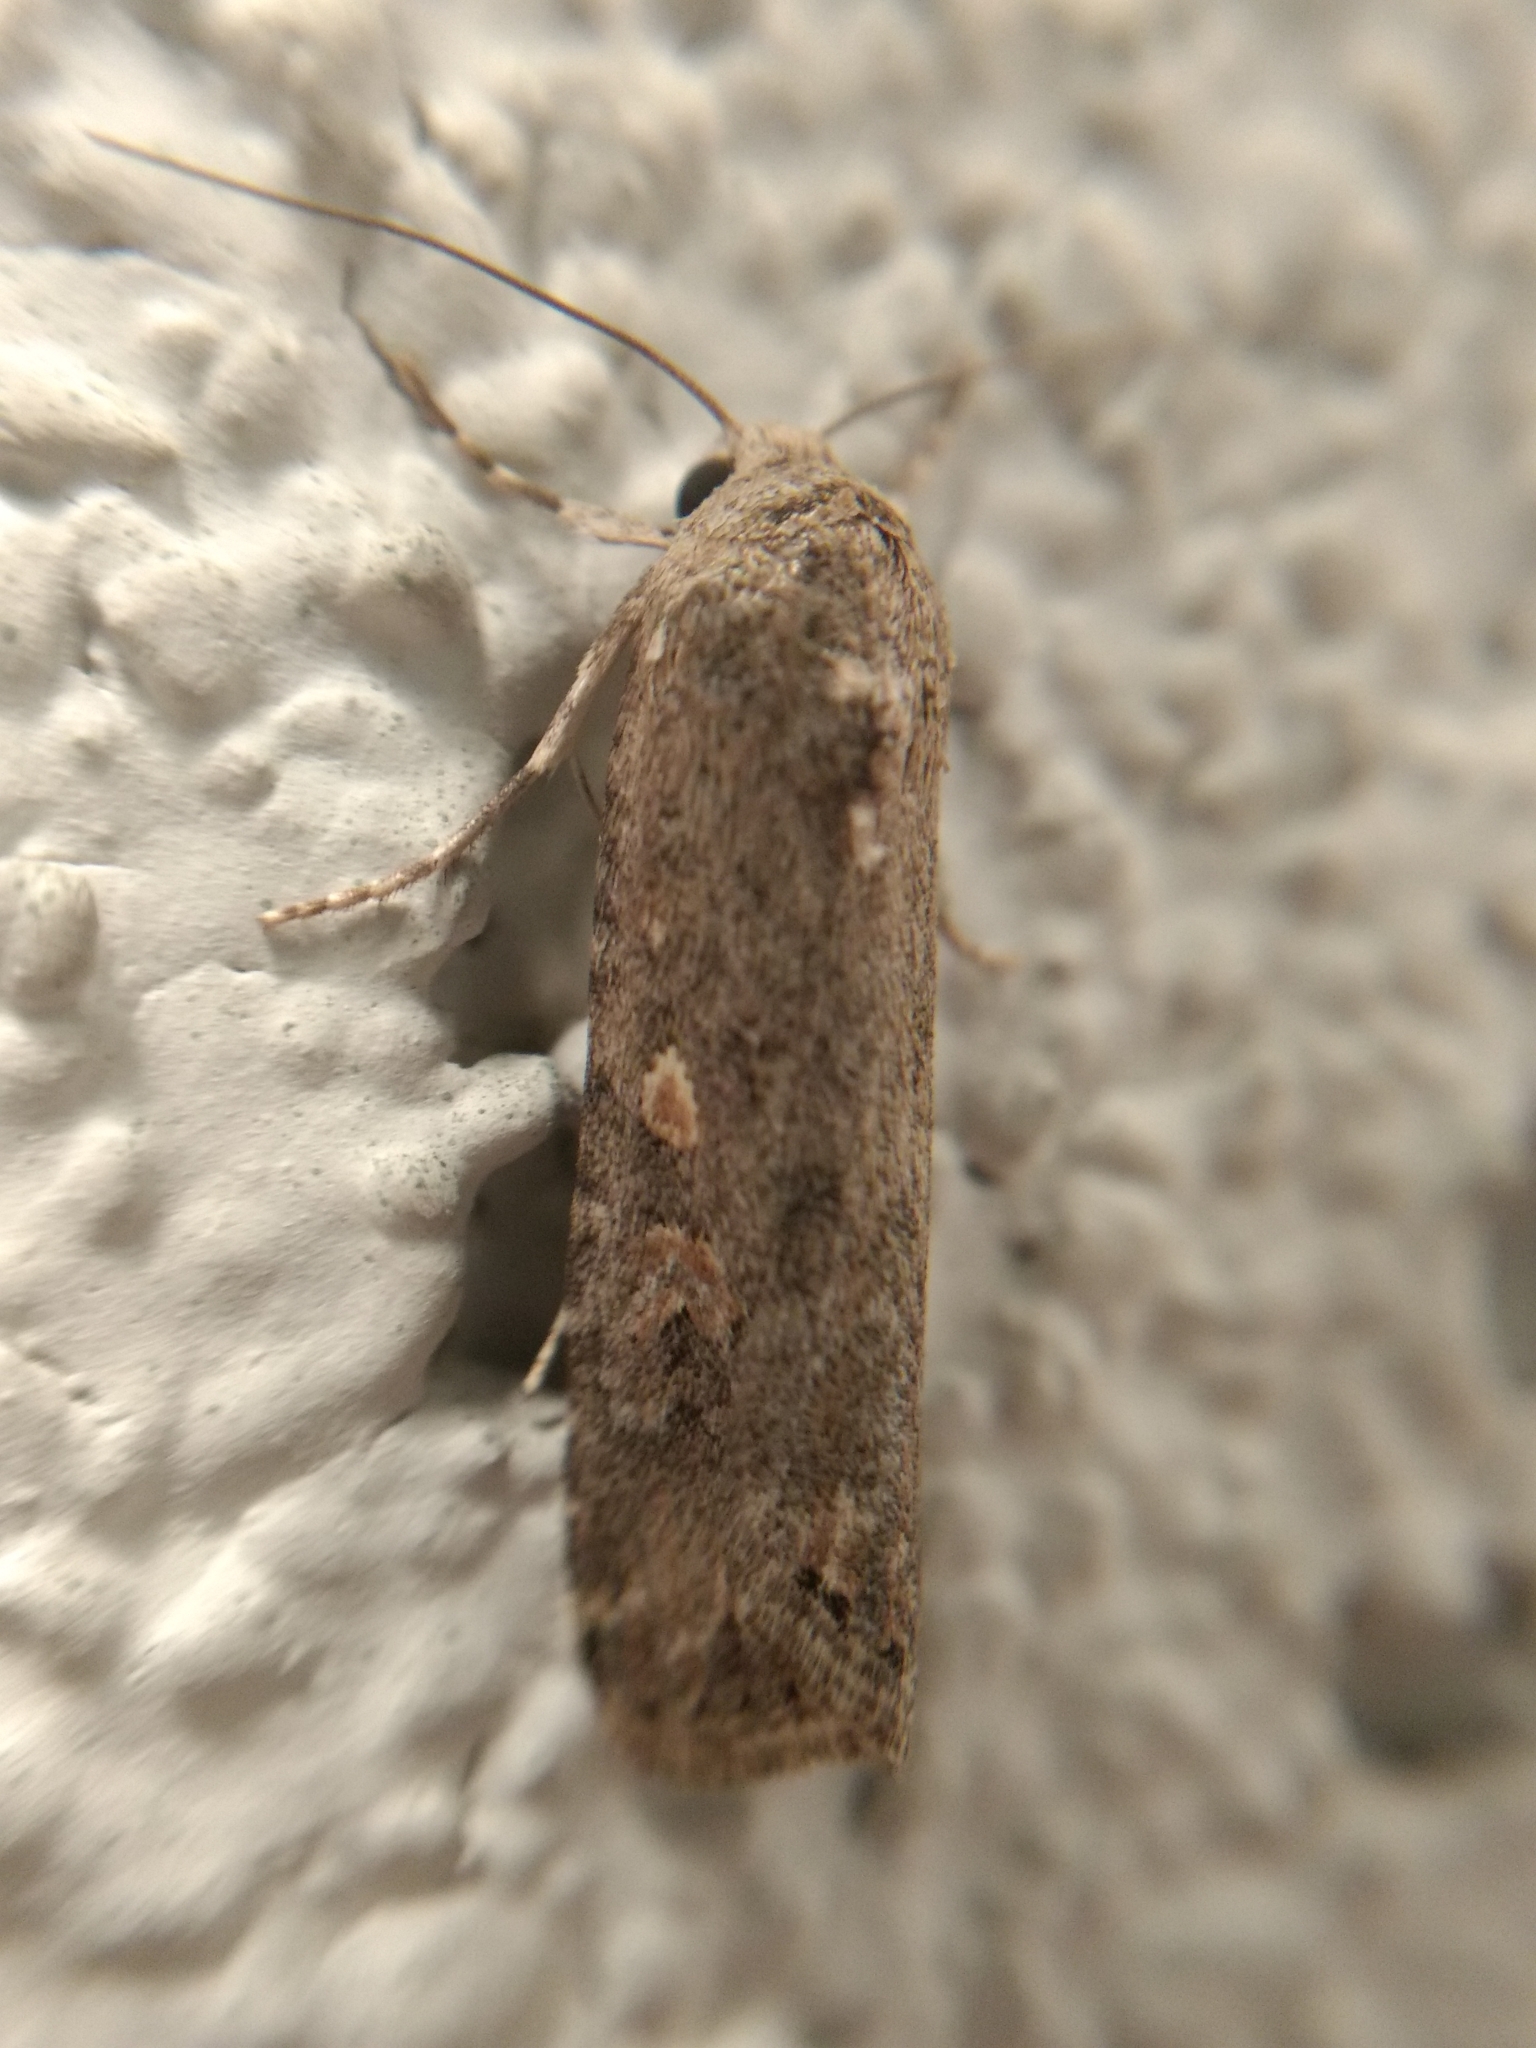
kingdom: Animalia
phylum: Arthropoda
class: Insecta
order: Lepidoptera
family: Noctuidae
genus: Spodoptera
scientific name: Spodoptera exigua
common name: Beet armyworm
